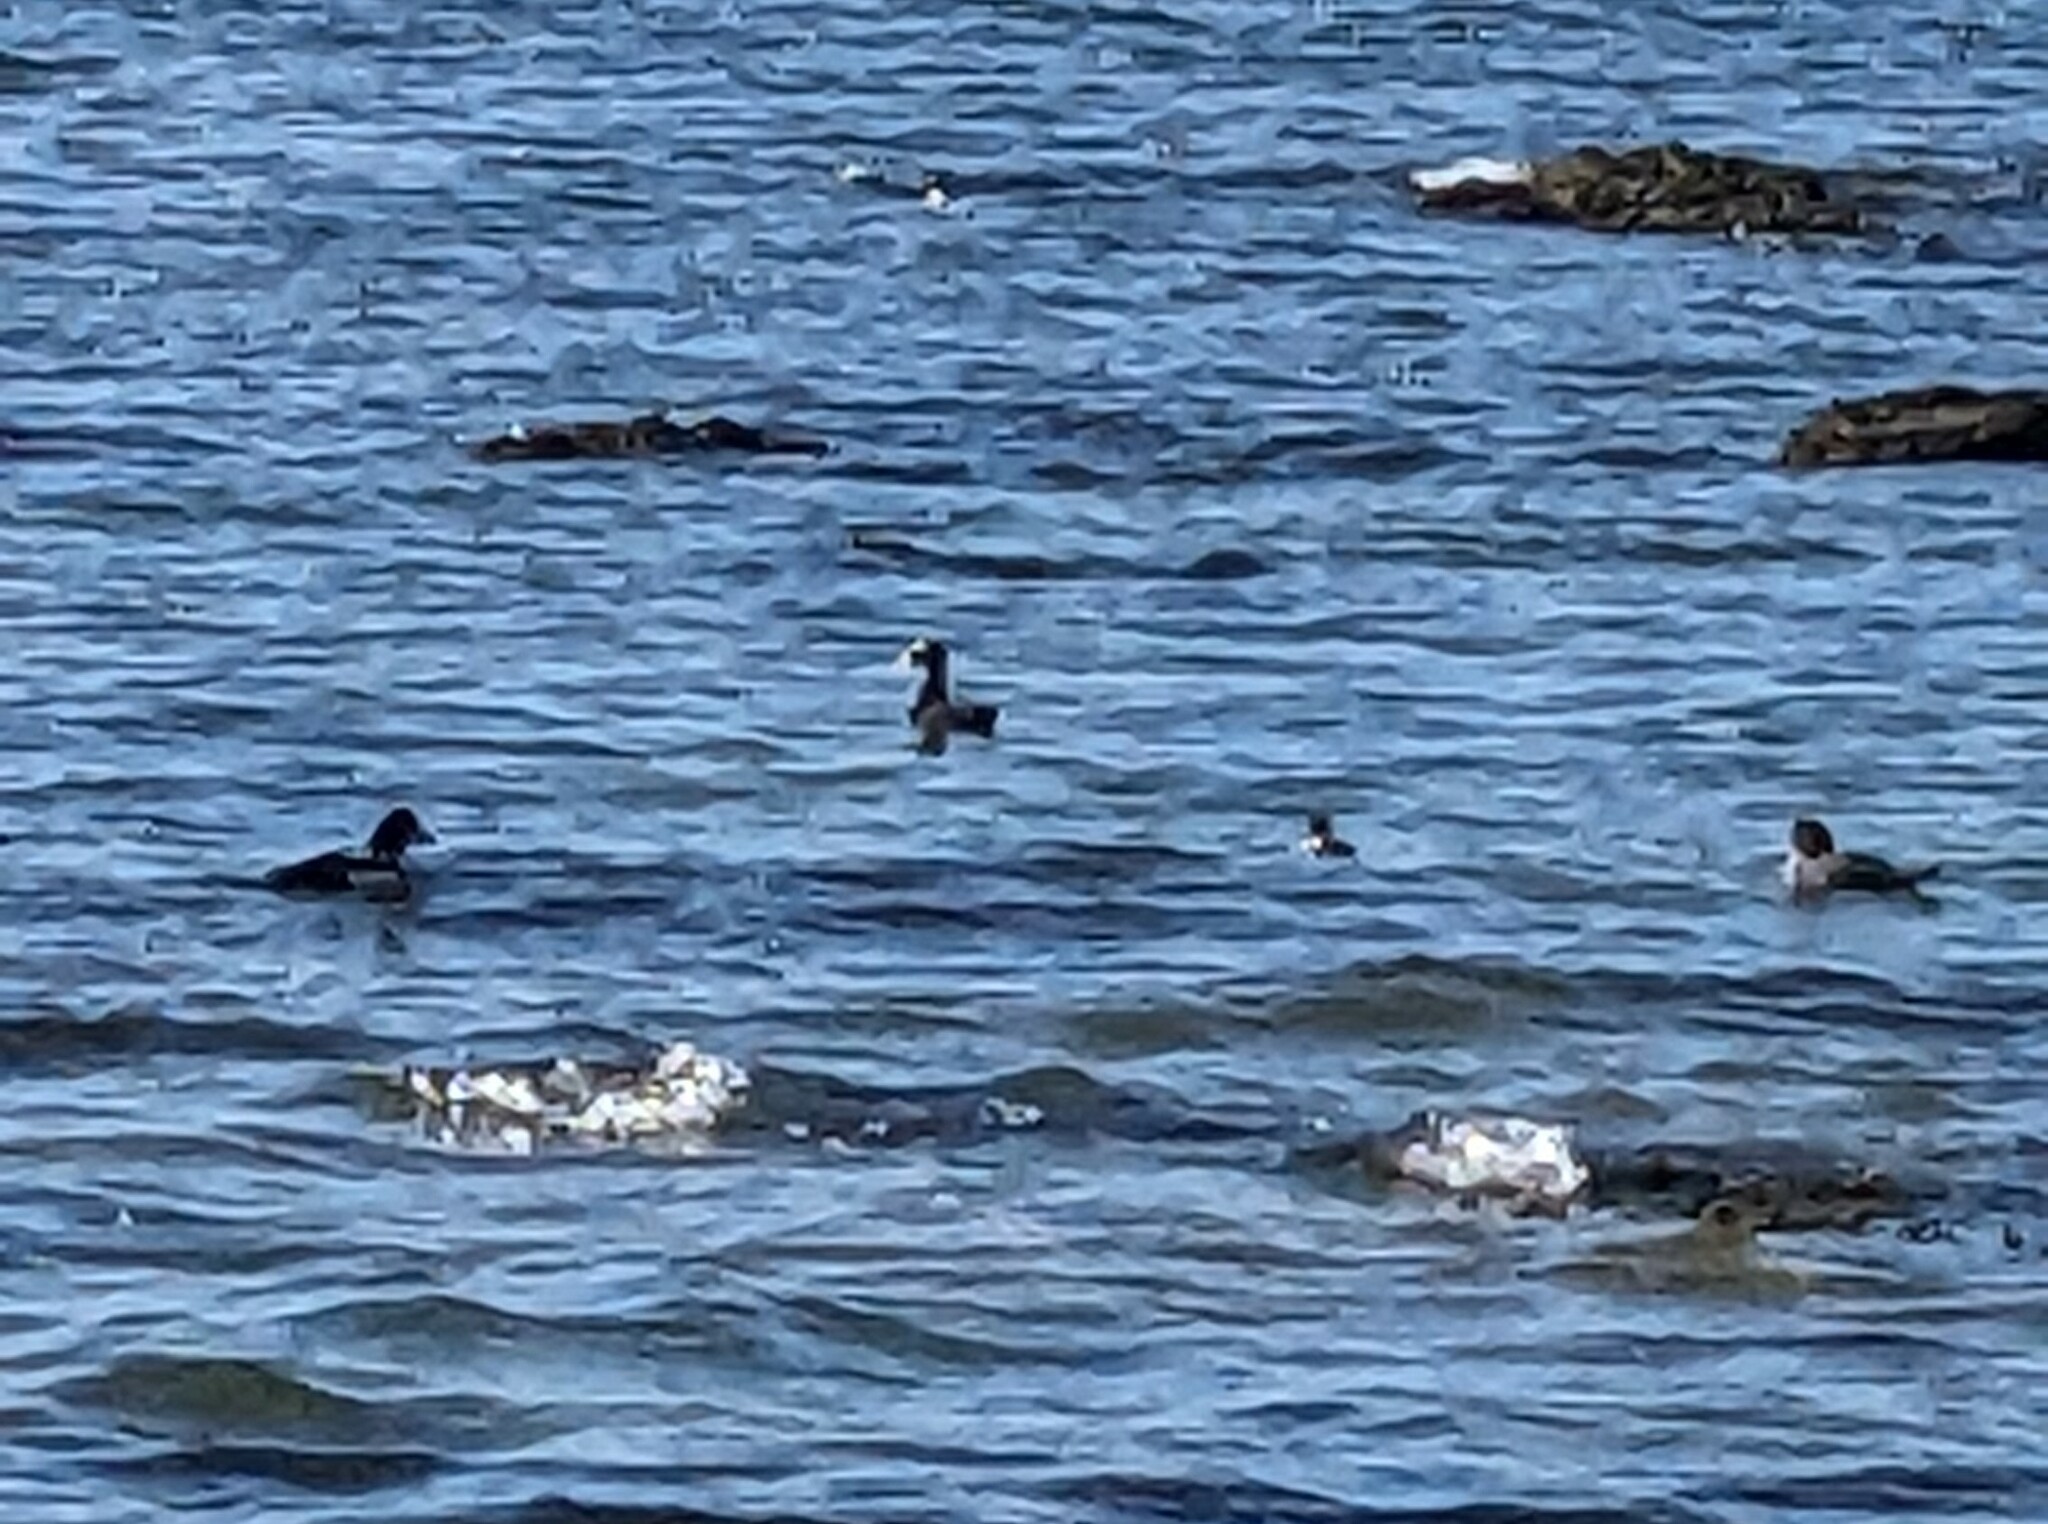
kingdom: Animalia
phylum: Chordata
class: Aves
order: Anseriformes
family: Anatidae
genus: Melanitta
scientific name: Melanitta perspicillata
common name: Surf scoter
